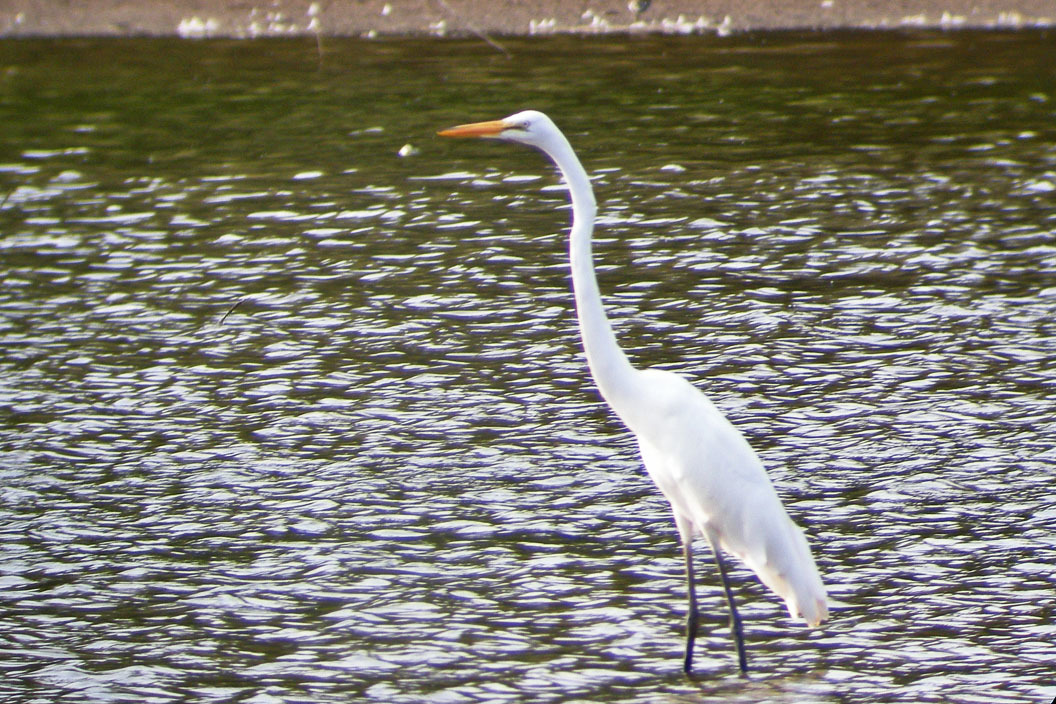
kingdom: Animalia
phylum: Chordata
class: Aves
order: Pelecaniformes
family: Ardeidae
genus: Ardea
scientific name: Ardea alba
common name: Great egret
